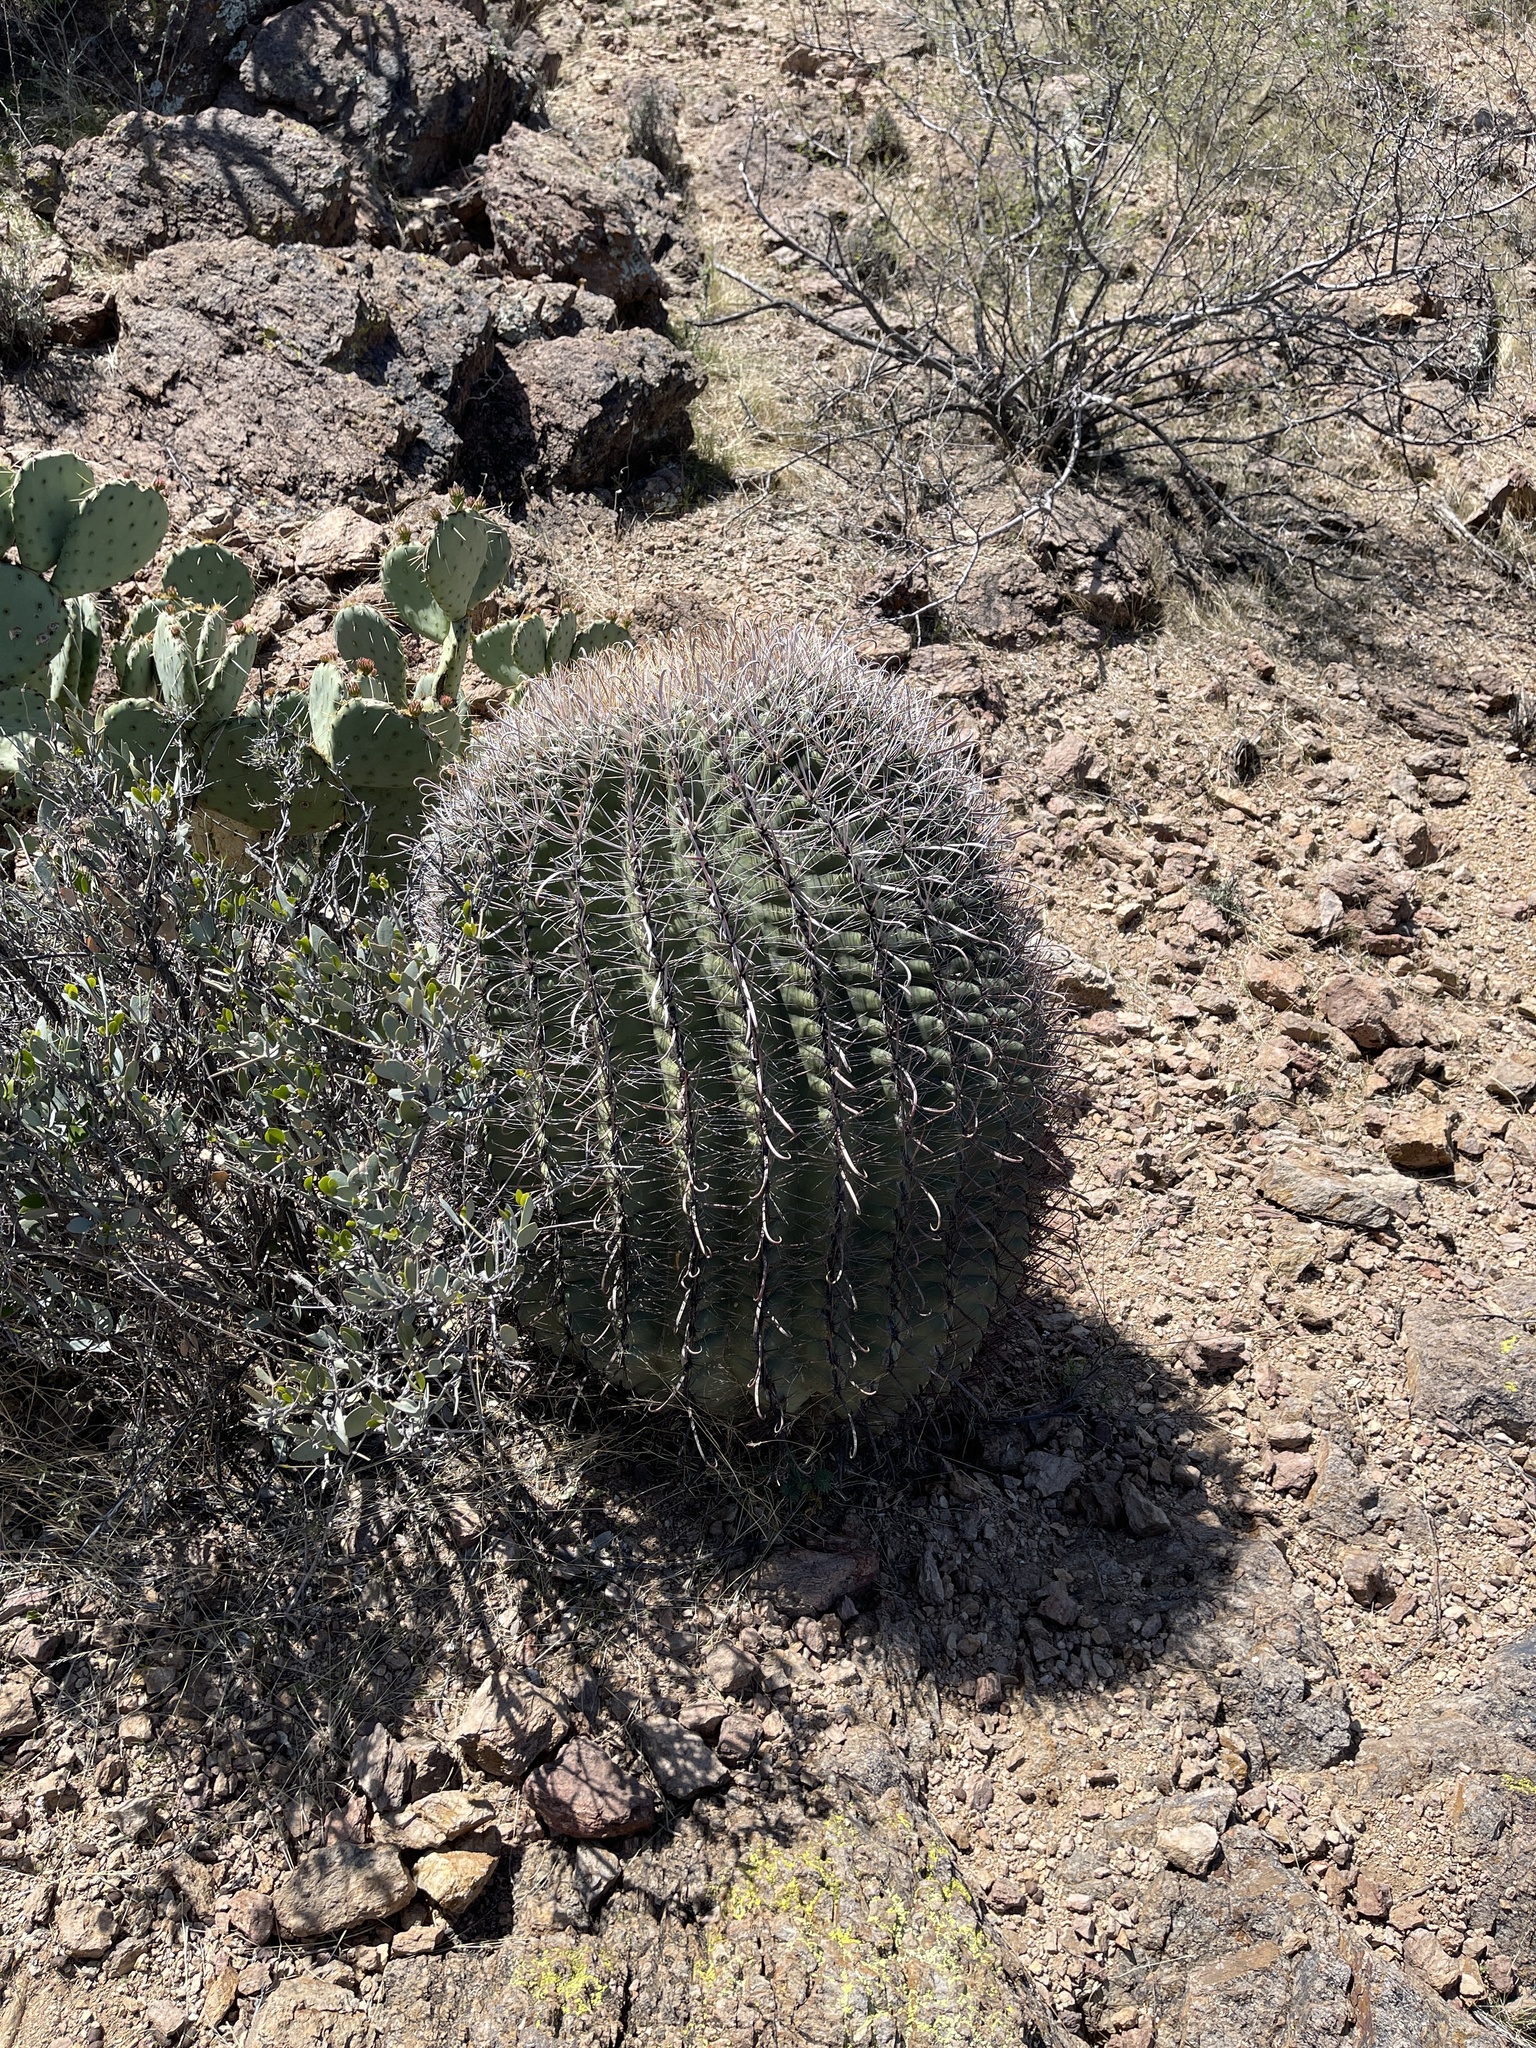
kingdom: Plantae
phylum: Tracheophyta
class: Magnoliopsida
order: Caryophyllales
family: Cactaceae
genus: Ferocactus
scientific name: Ferocactus wislizeni
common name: Candy barrel cactus
